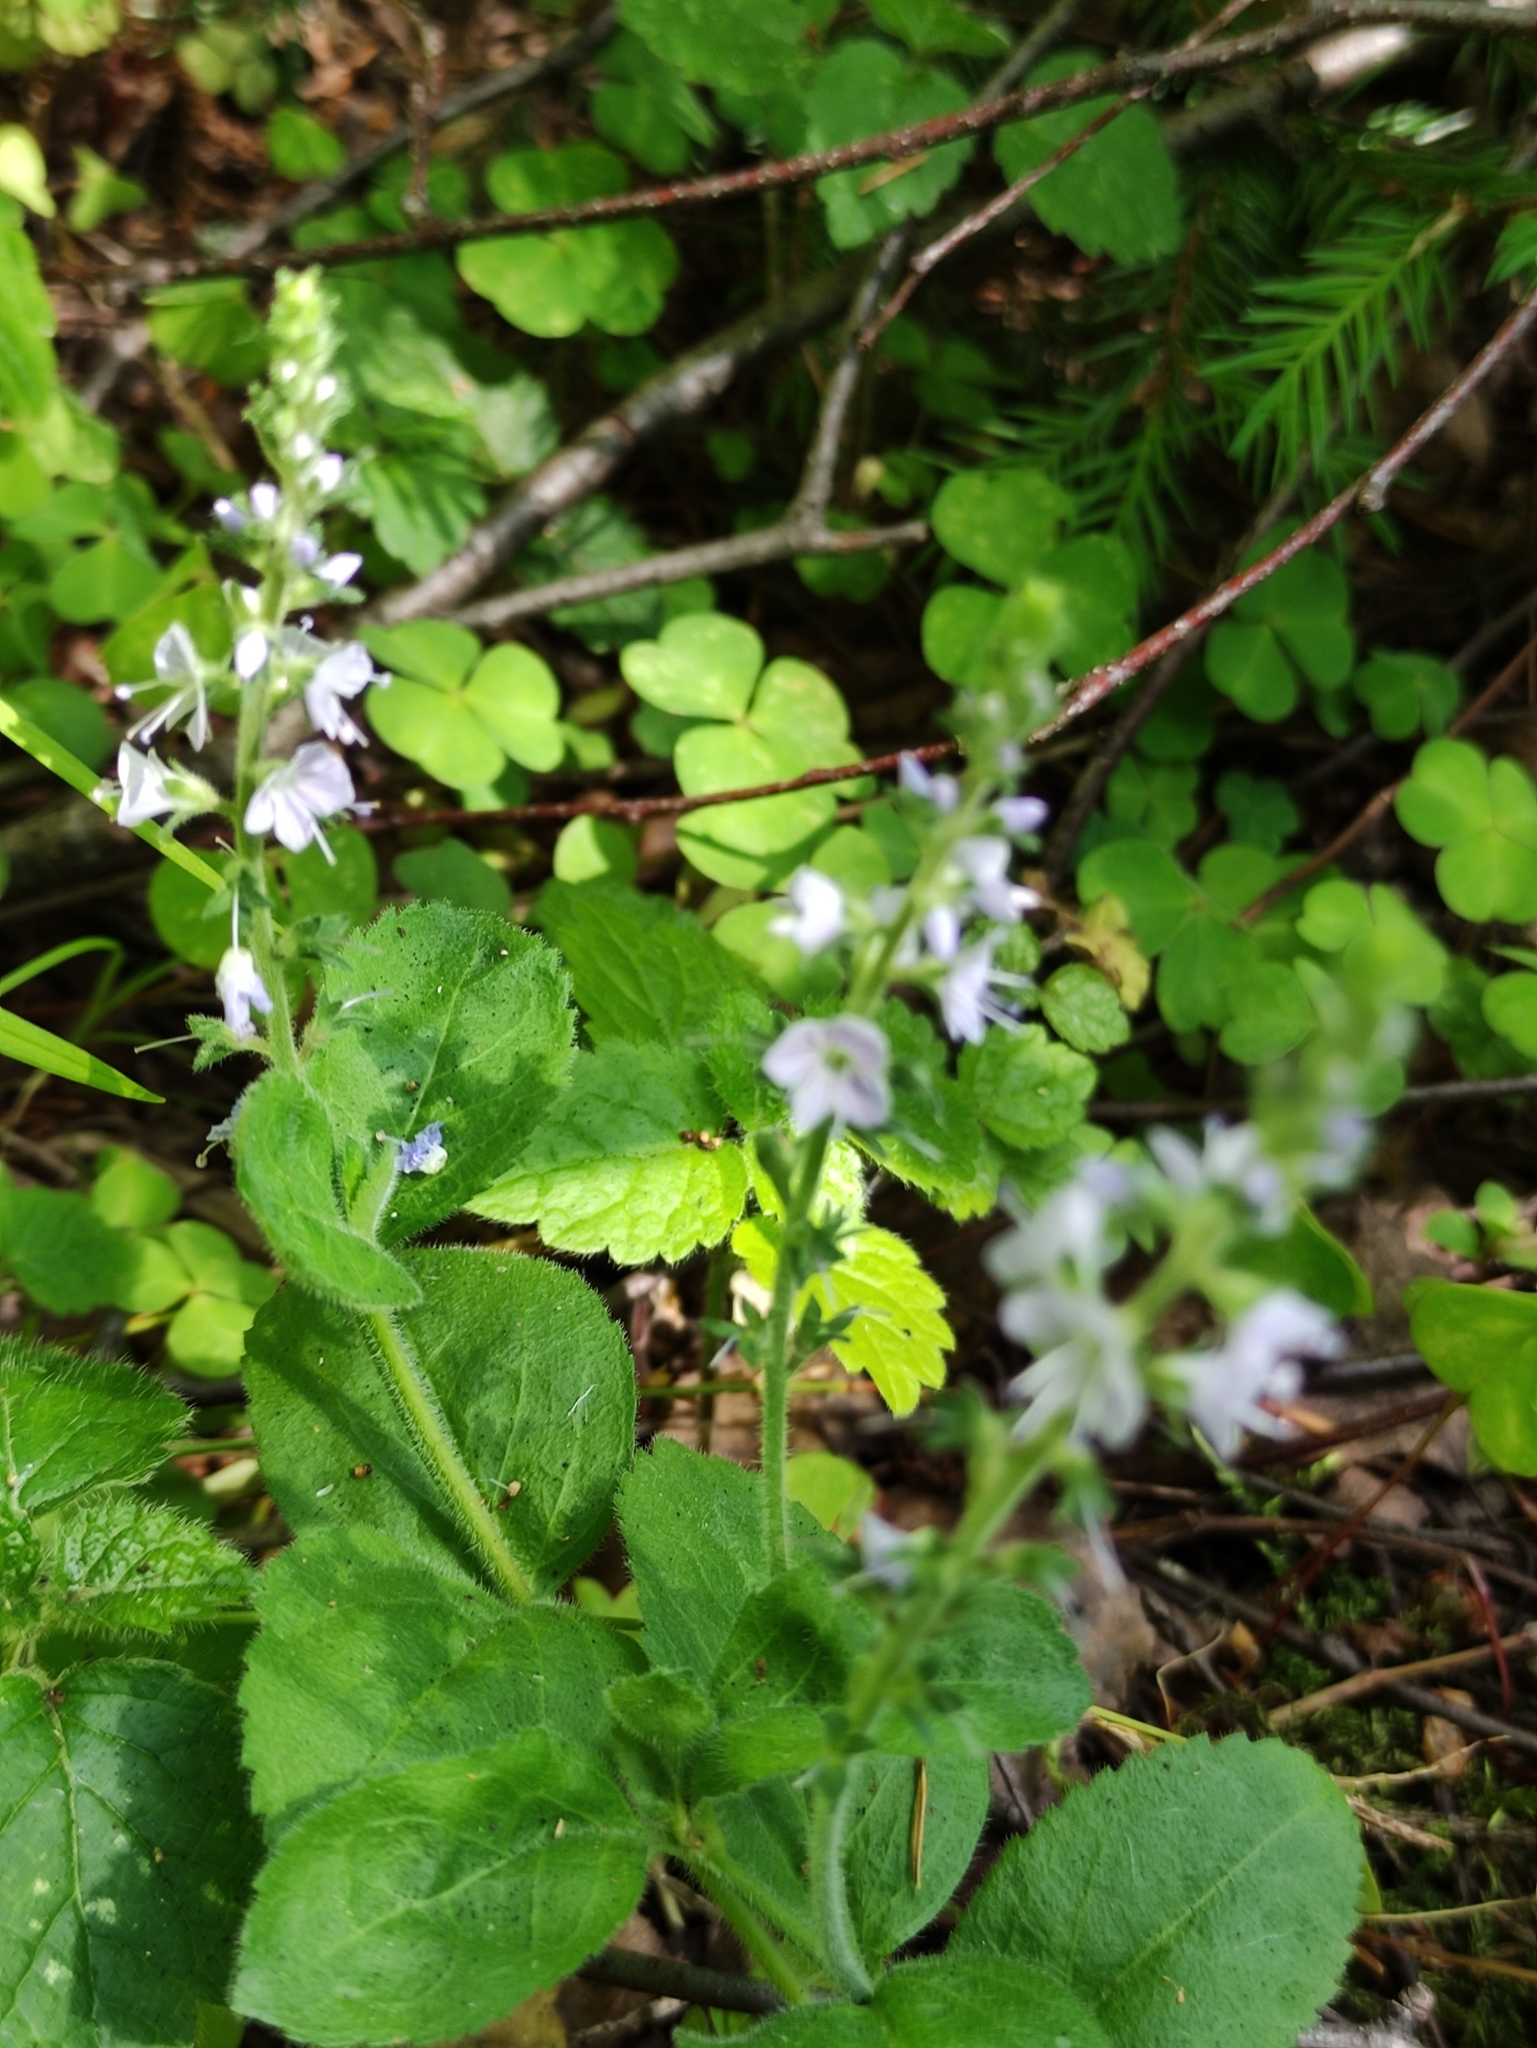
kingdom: Plantae
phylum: Tracheophyta
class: Magnoliopsida
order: Lamiales
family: Plantaginaceae
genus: Veronica
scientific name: Veronica officinalis
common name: Common speedwell
